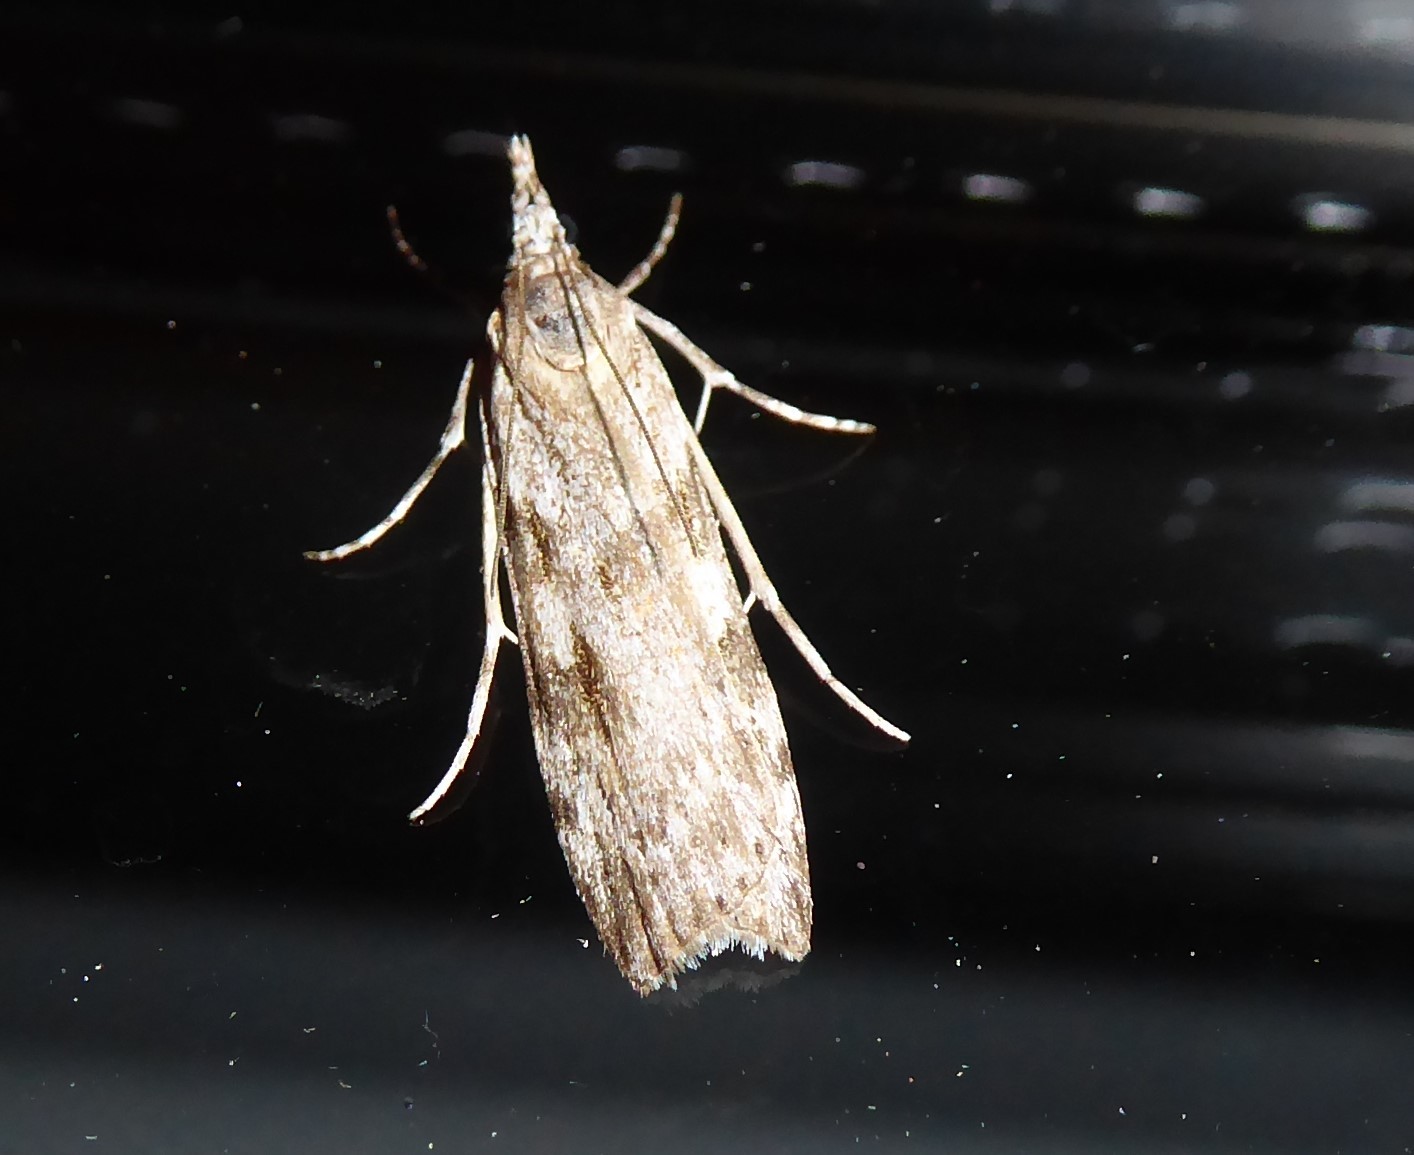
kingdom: Animalia
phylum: Arthropoda
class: Insecta
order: Lepidoptera
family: Crambidae
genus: Scoparia
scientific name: Scoparia halopis
